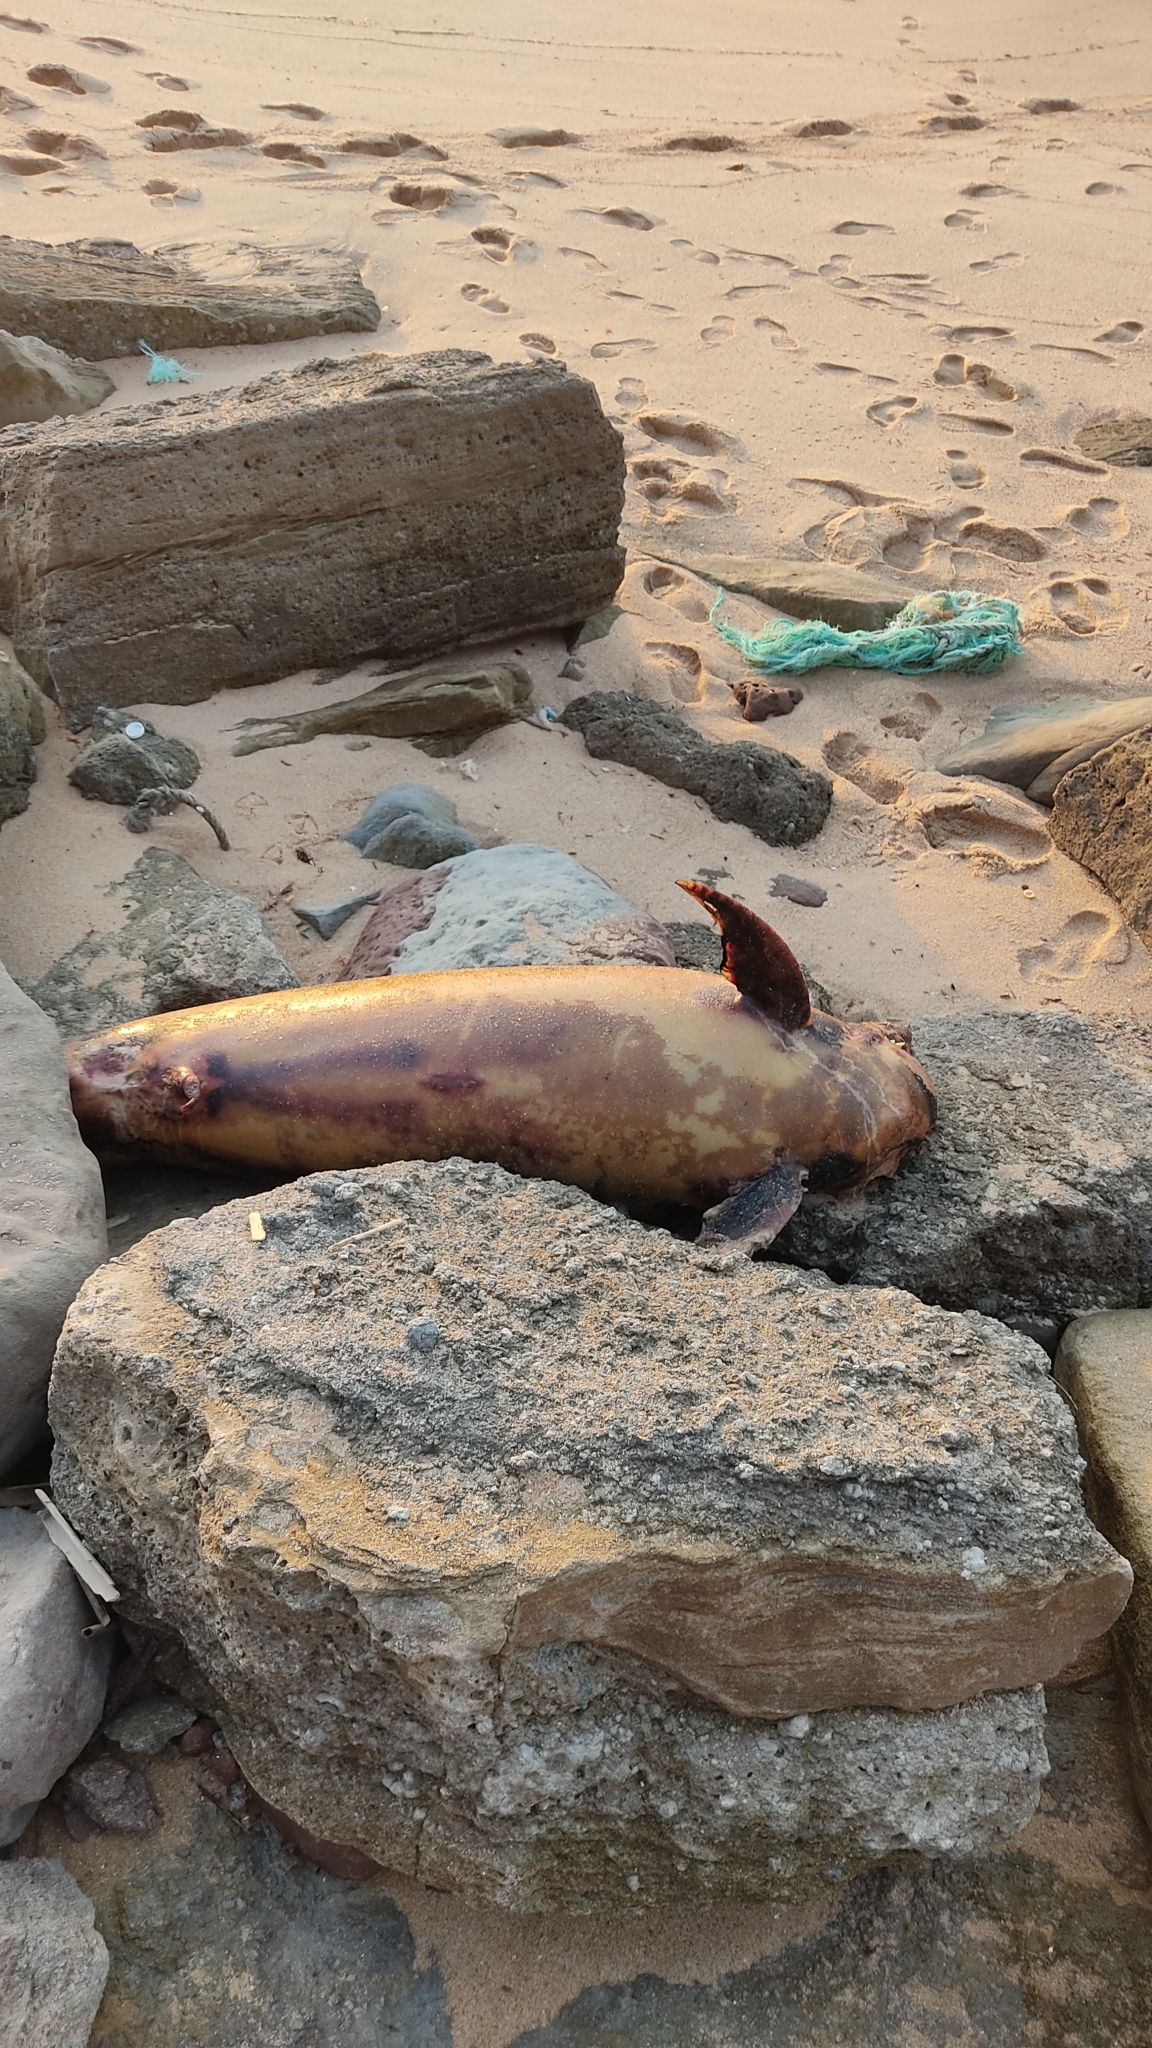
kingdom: Animalia
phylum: Chordata
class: Mammalia
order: Cetacea
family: Delphinidae
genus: Delphinus
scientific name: Delphinus delphis
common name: Common dolphin
